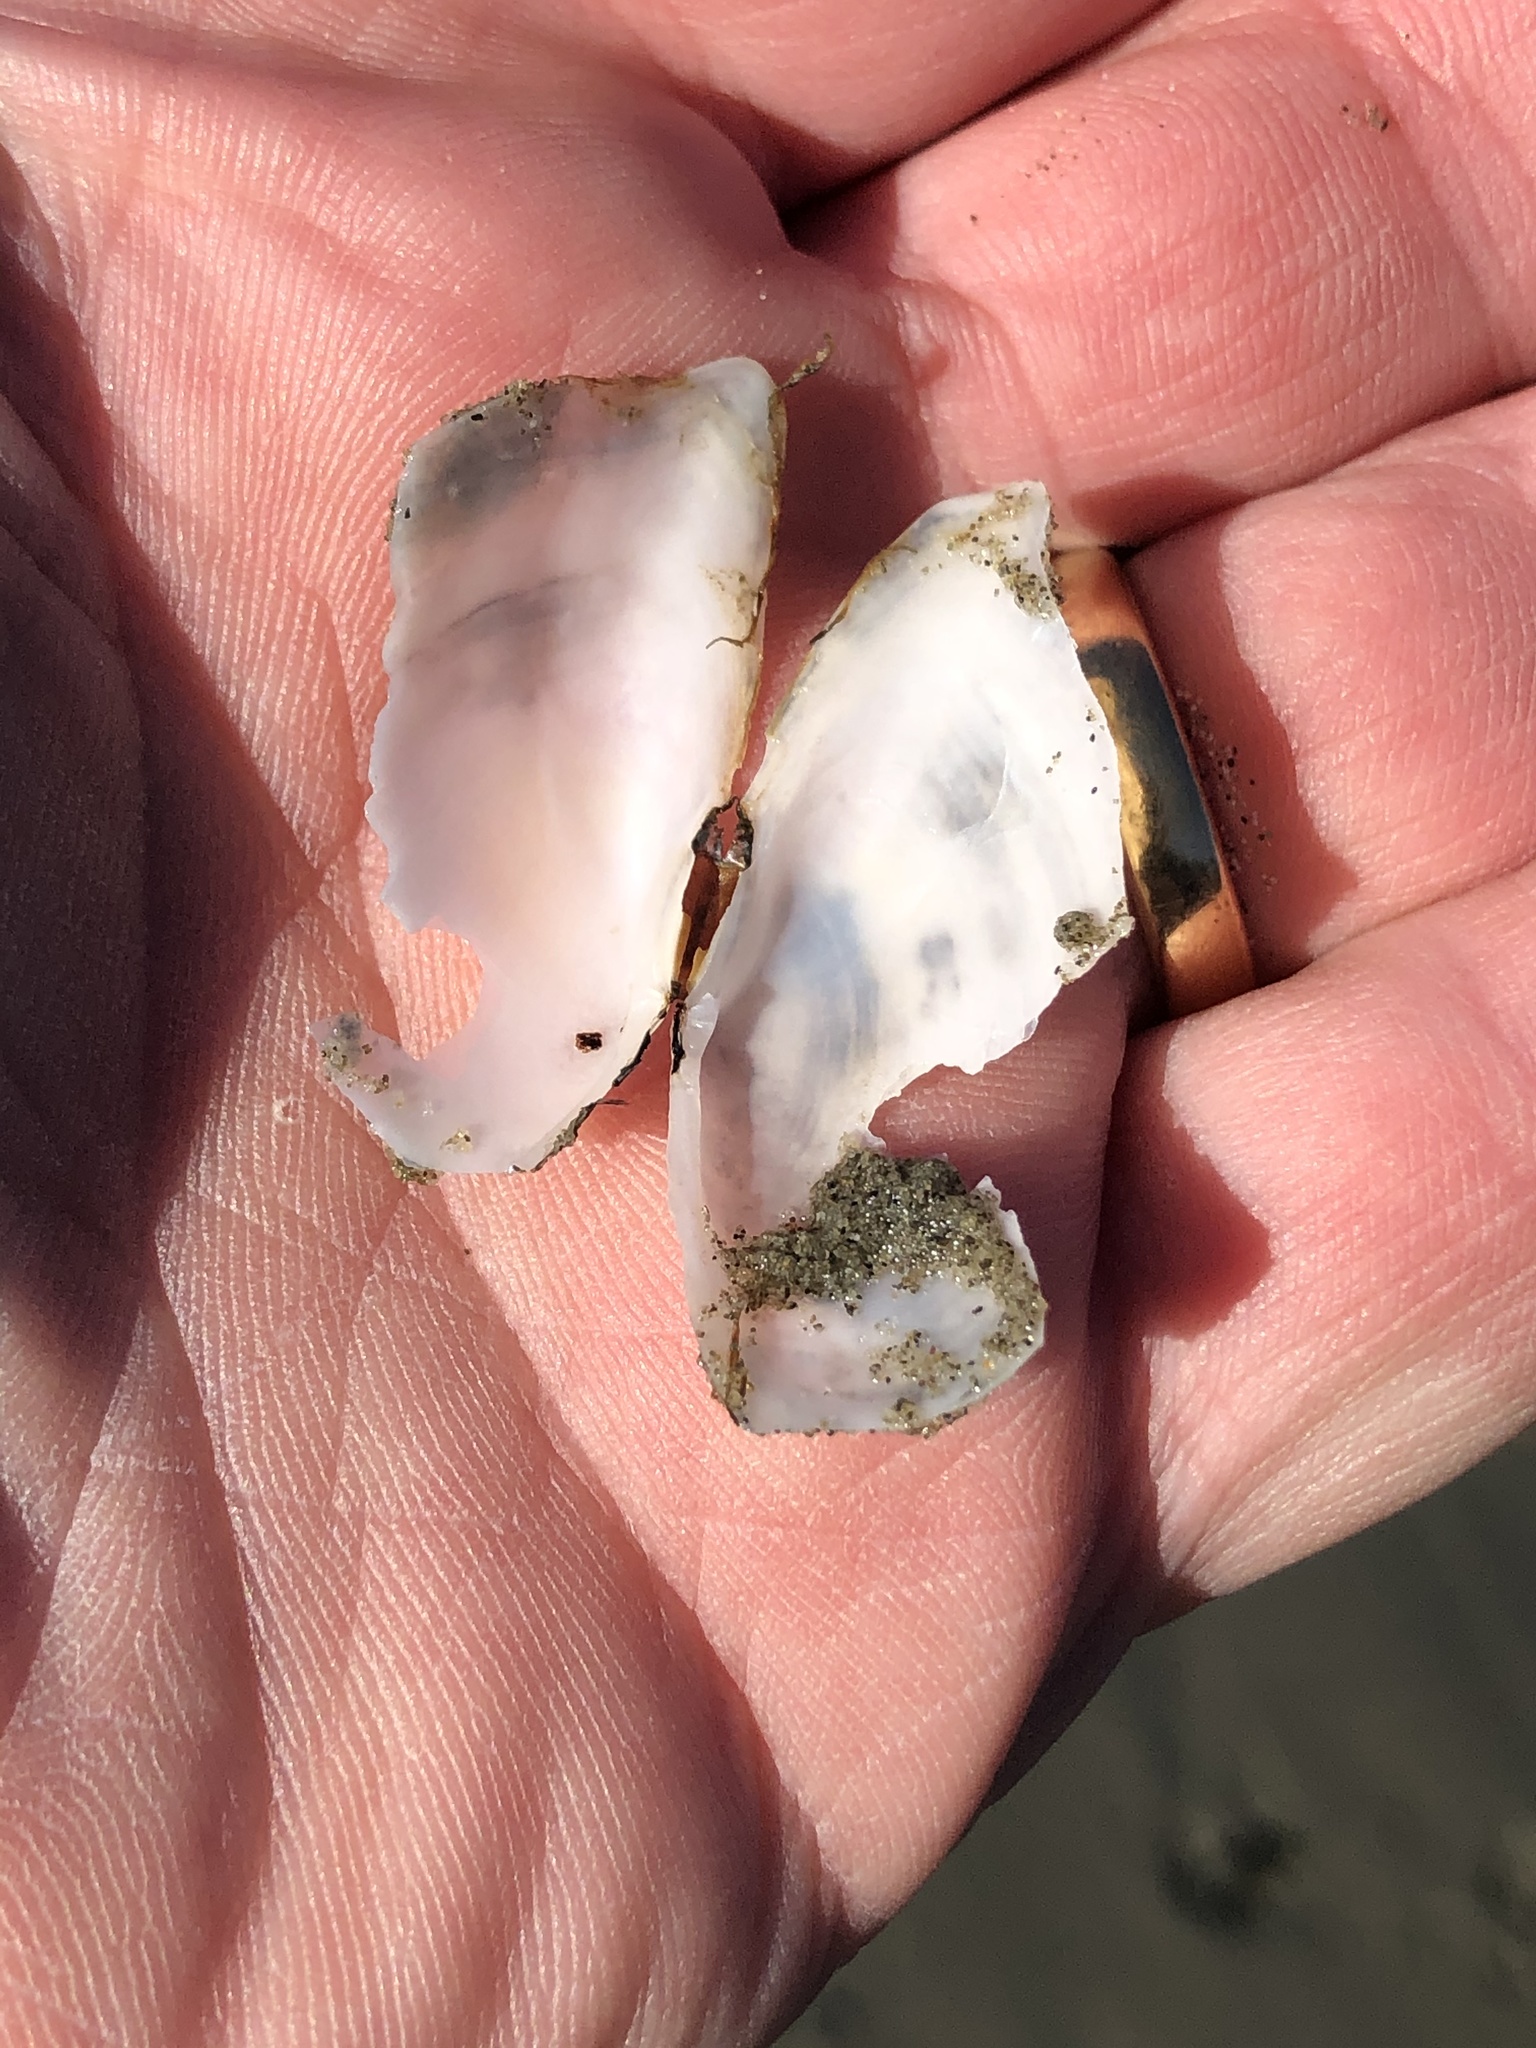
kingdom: Animalia
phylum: Mollusca
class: Bivalvia
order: Cardiida
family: Tellinidae
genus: Ardeamya
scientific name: Ardeamya spenceri
